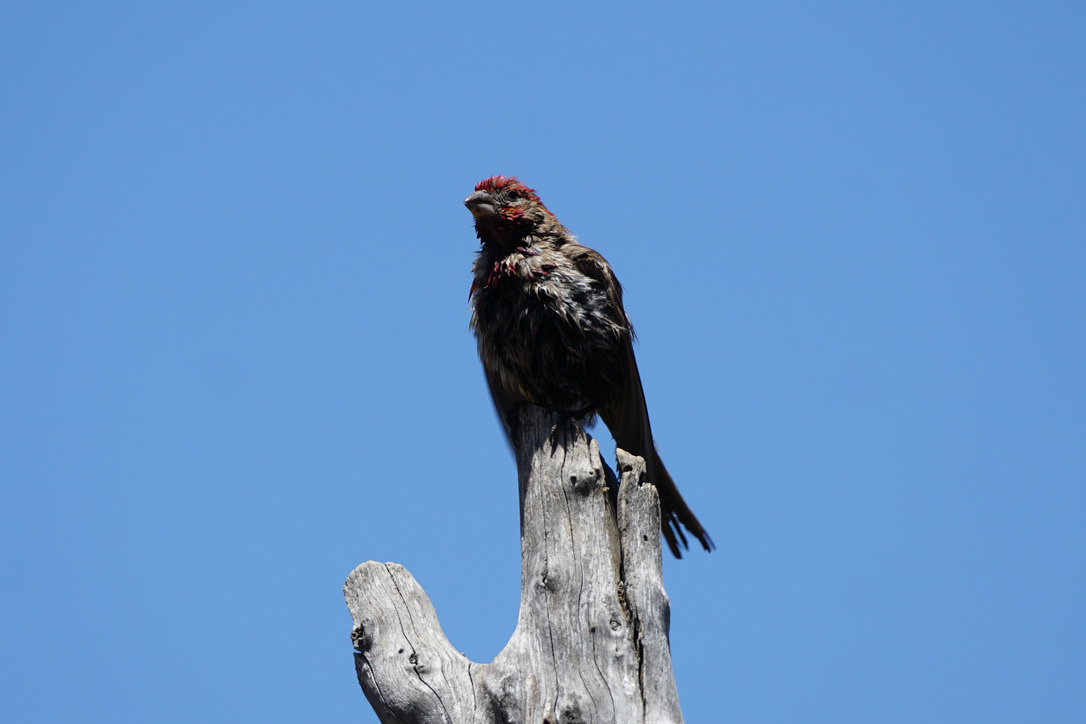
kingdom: Animalia
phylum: Chordata
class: Aves
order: Passeriformes
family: Fringillidae
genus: Haemorhous
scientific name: Haemorhous mexicanus
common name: House finch
